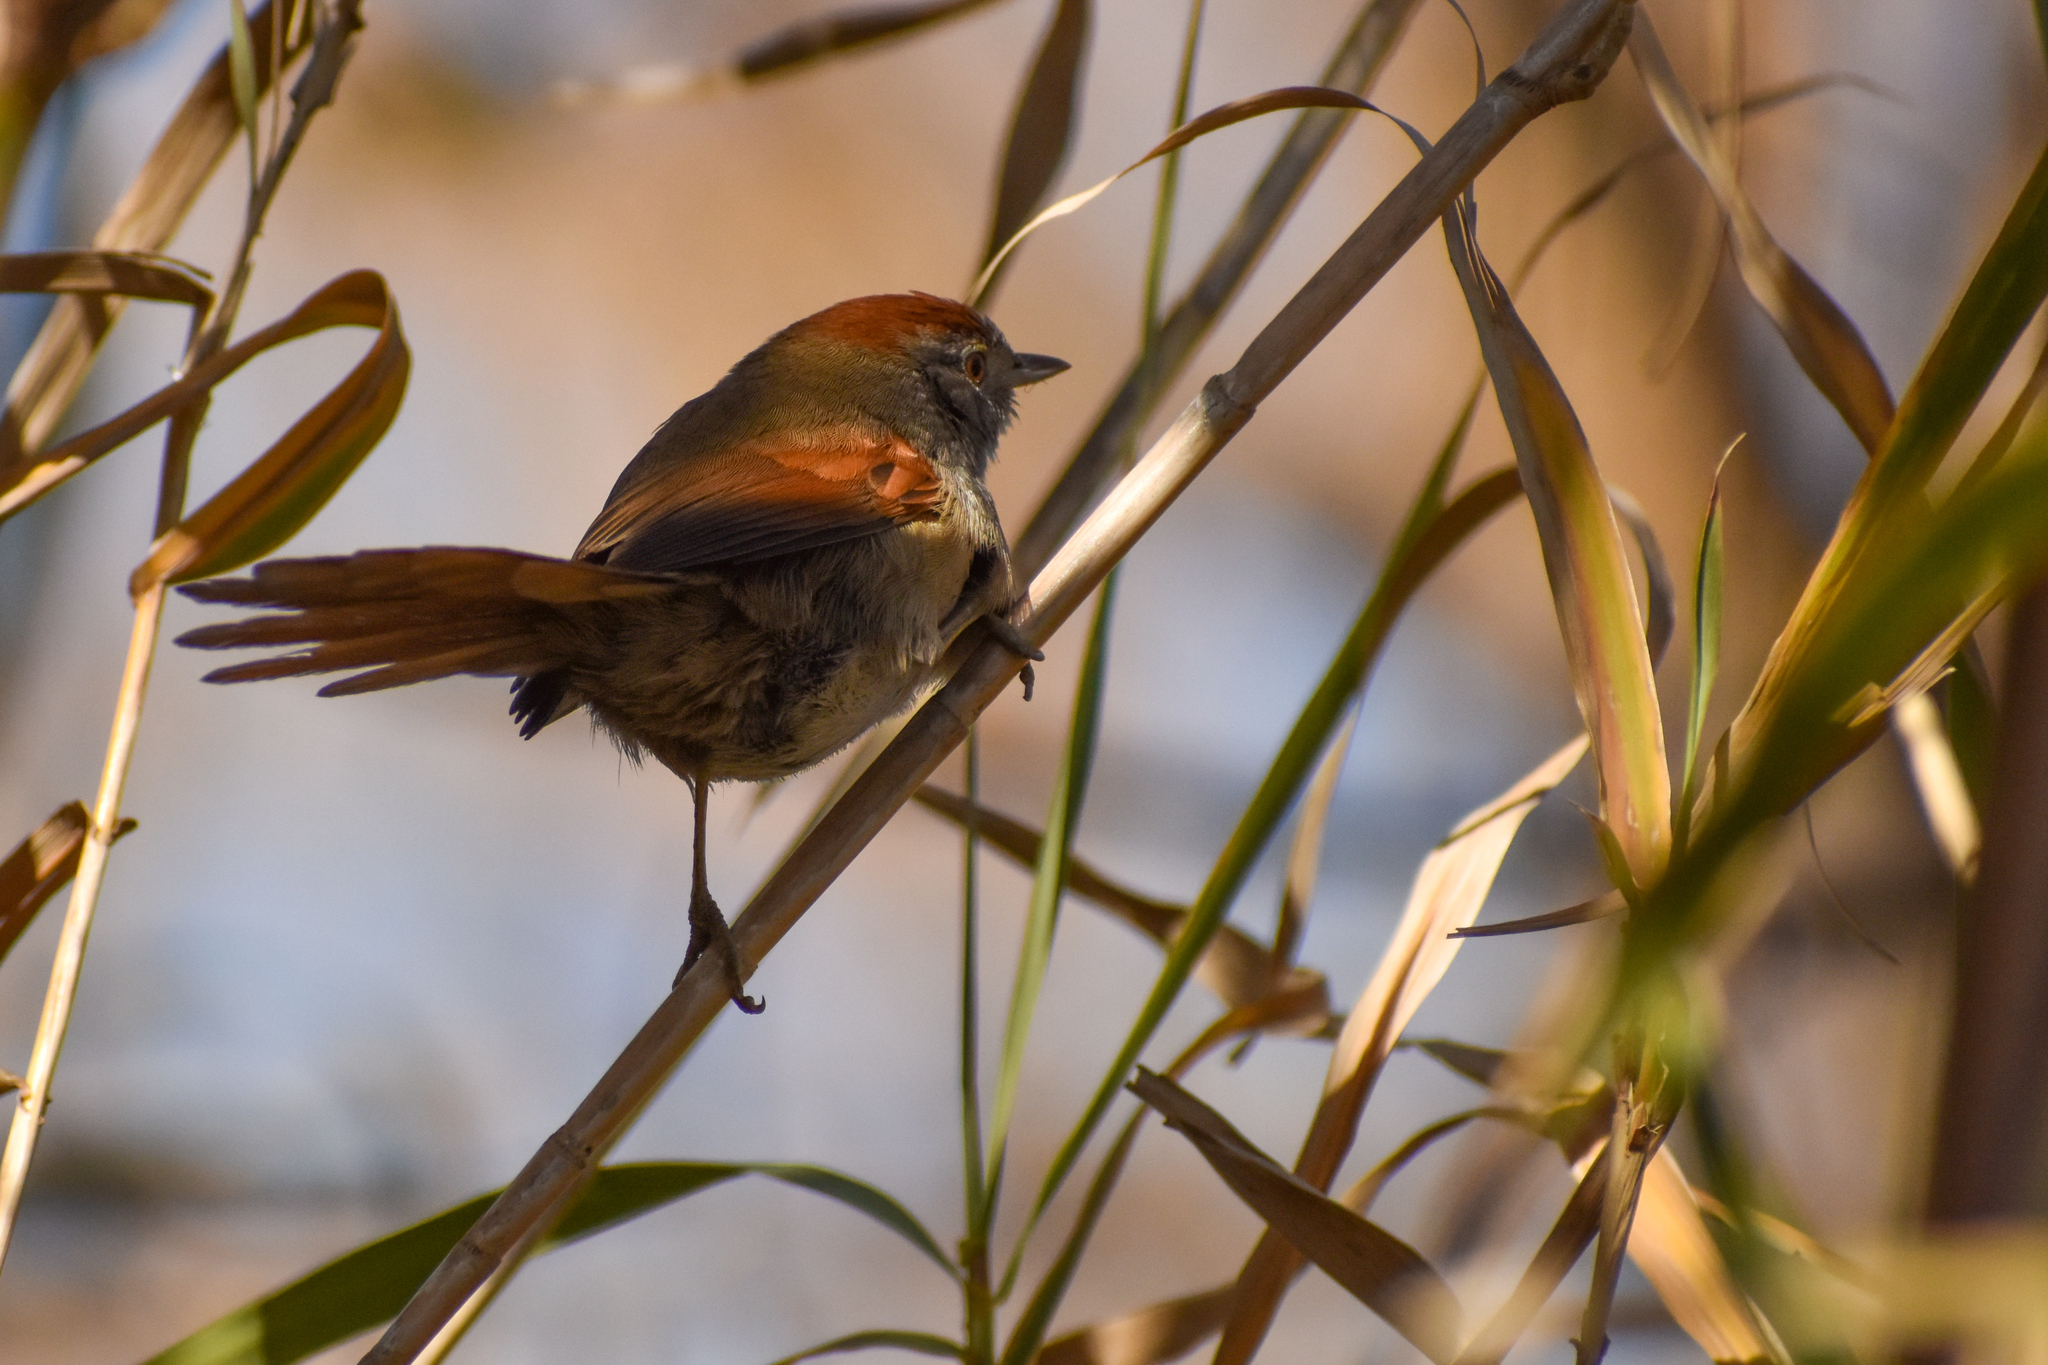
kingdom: Animalia
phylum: Chordata
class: Aves
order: Passeriformes
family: Furnariidae
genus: Synallaxis
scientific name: Synallaxis frontalis
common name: Sooty-fronted spinetail
